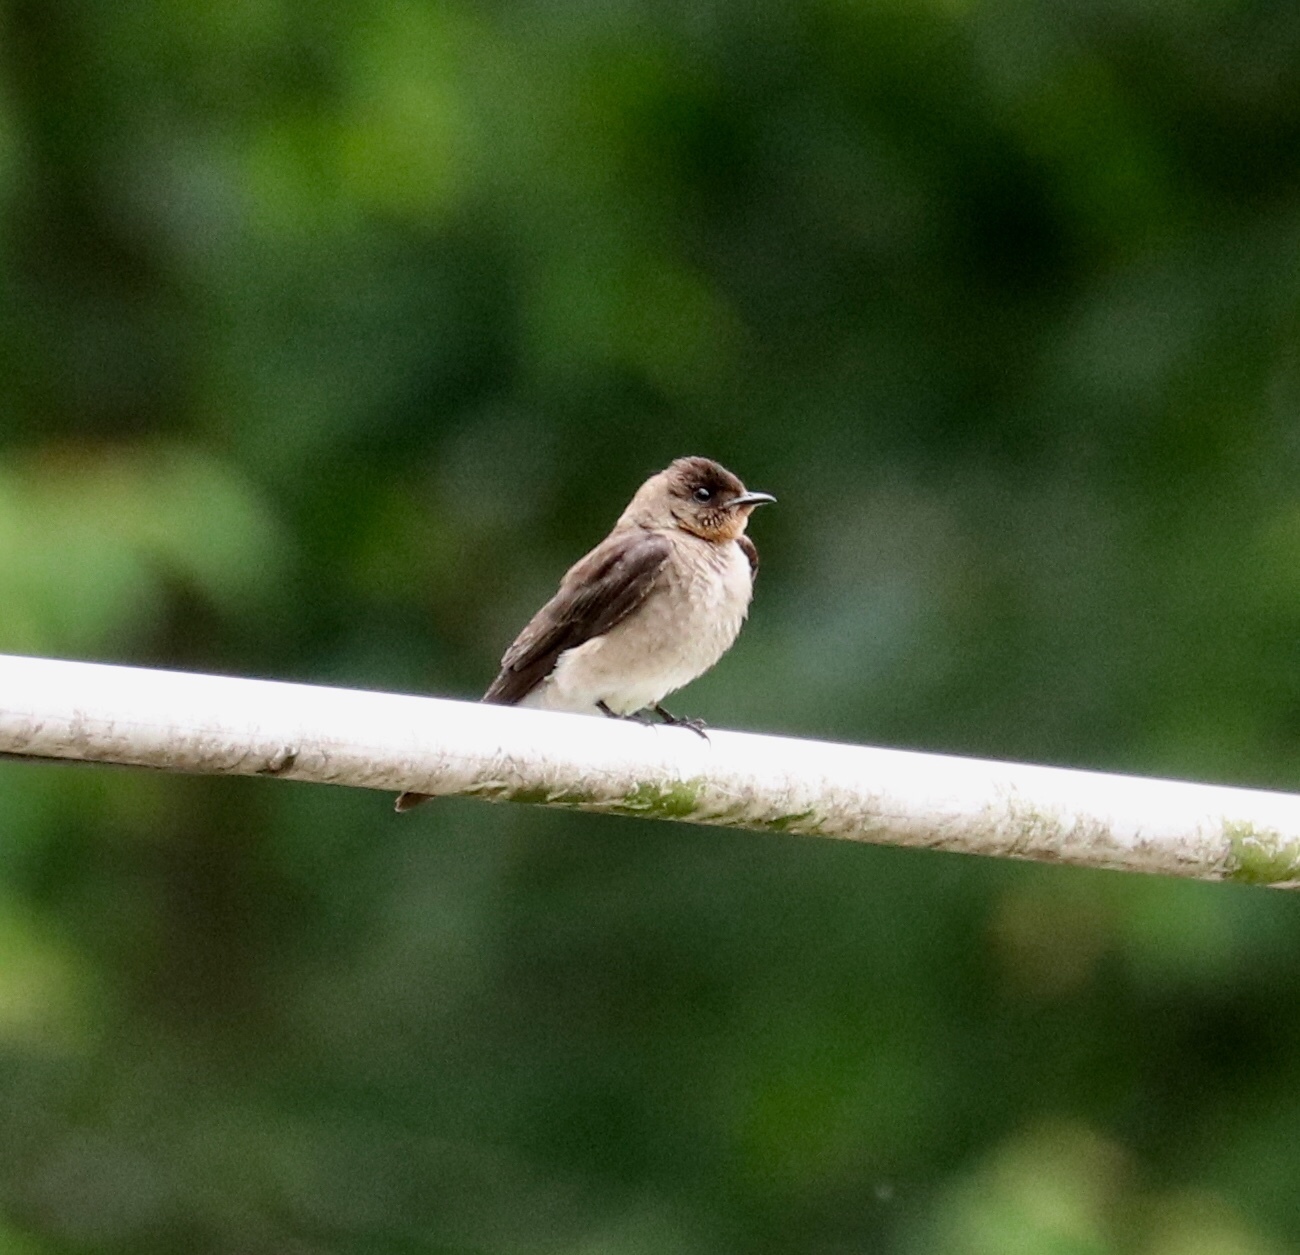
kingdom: Animalia
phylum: Chordata
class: Aves
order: Passeriformes
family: Hirundinidae
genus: Stelgidopteryx
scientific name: Stelgidopteryx ruficollis
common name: Southern rough-winged swallow
